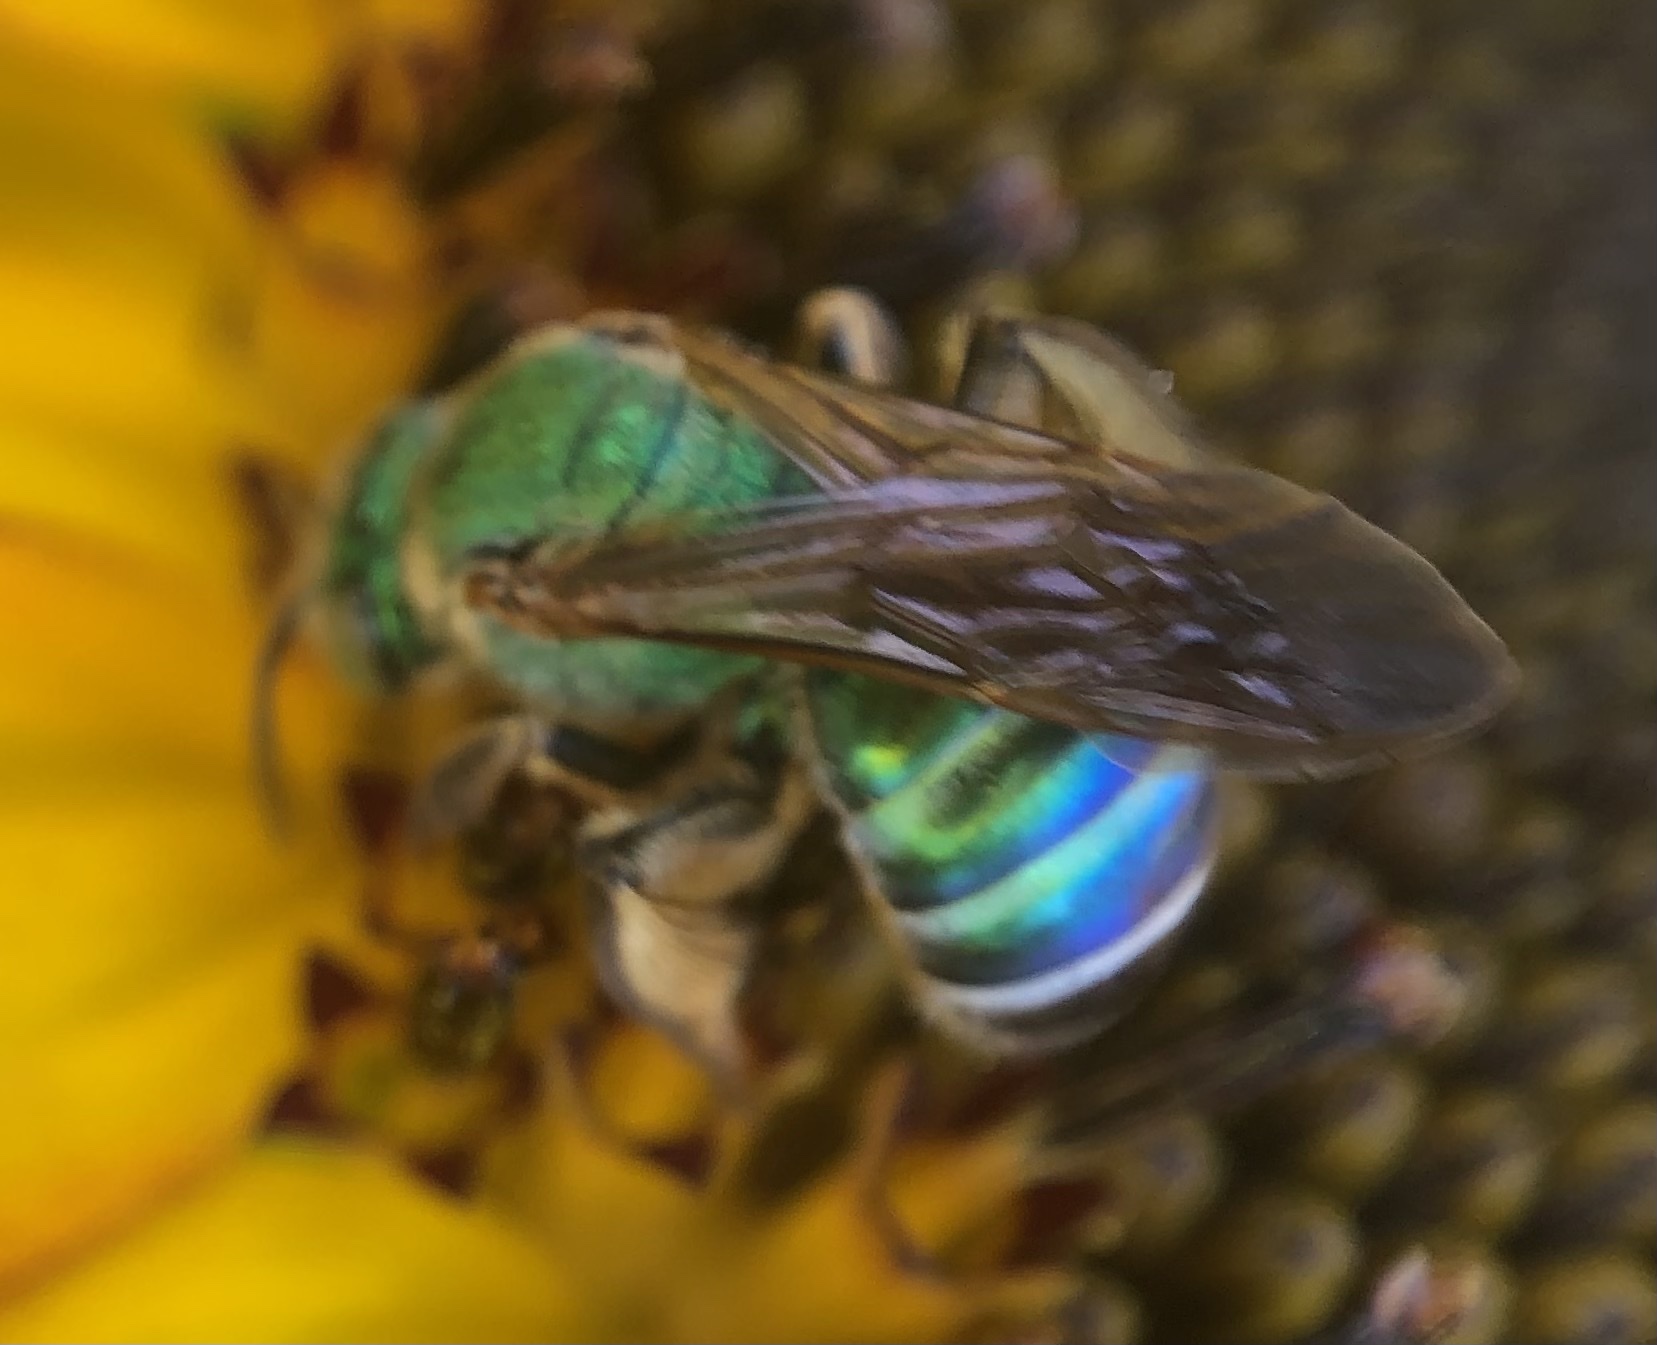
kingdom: Animalia
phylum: Arthropoda
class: Insecta
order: Hymenoptera
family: Halictidae
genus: Agapostemon
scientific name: Agapostemon splendens
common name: Brown-winged striped sweat bee
